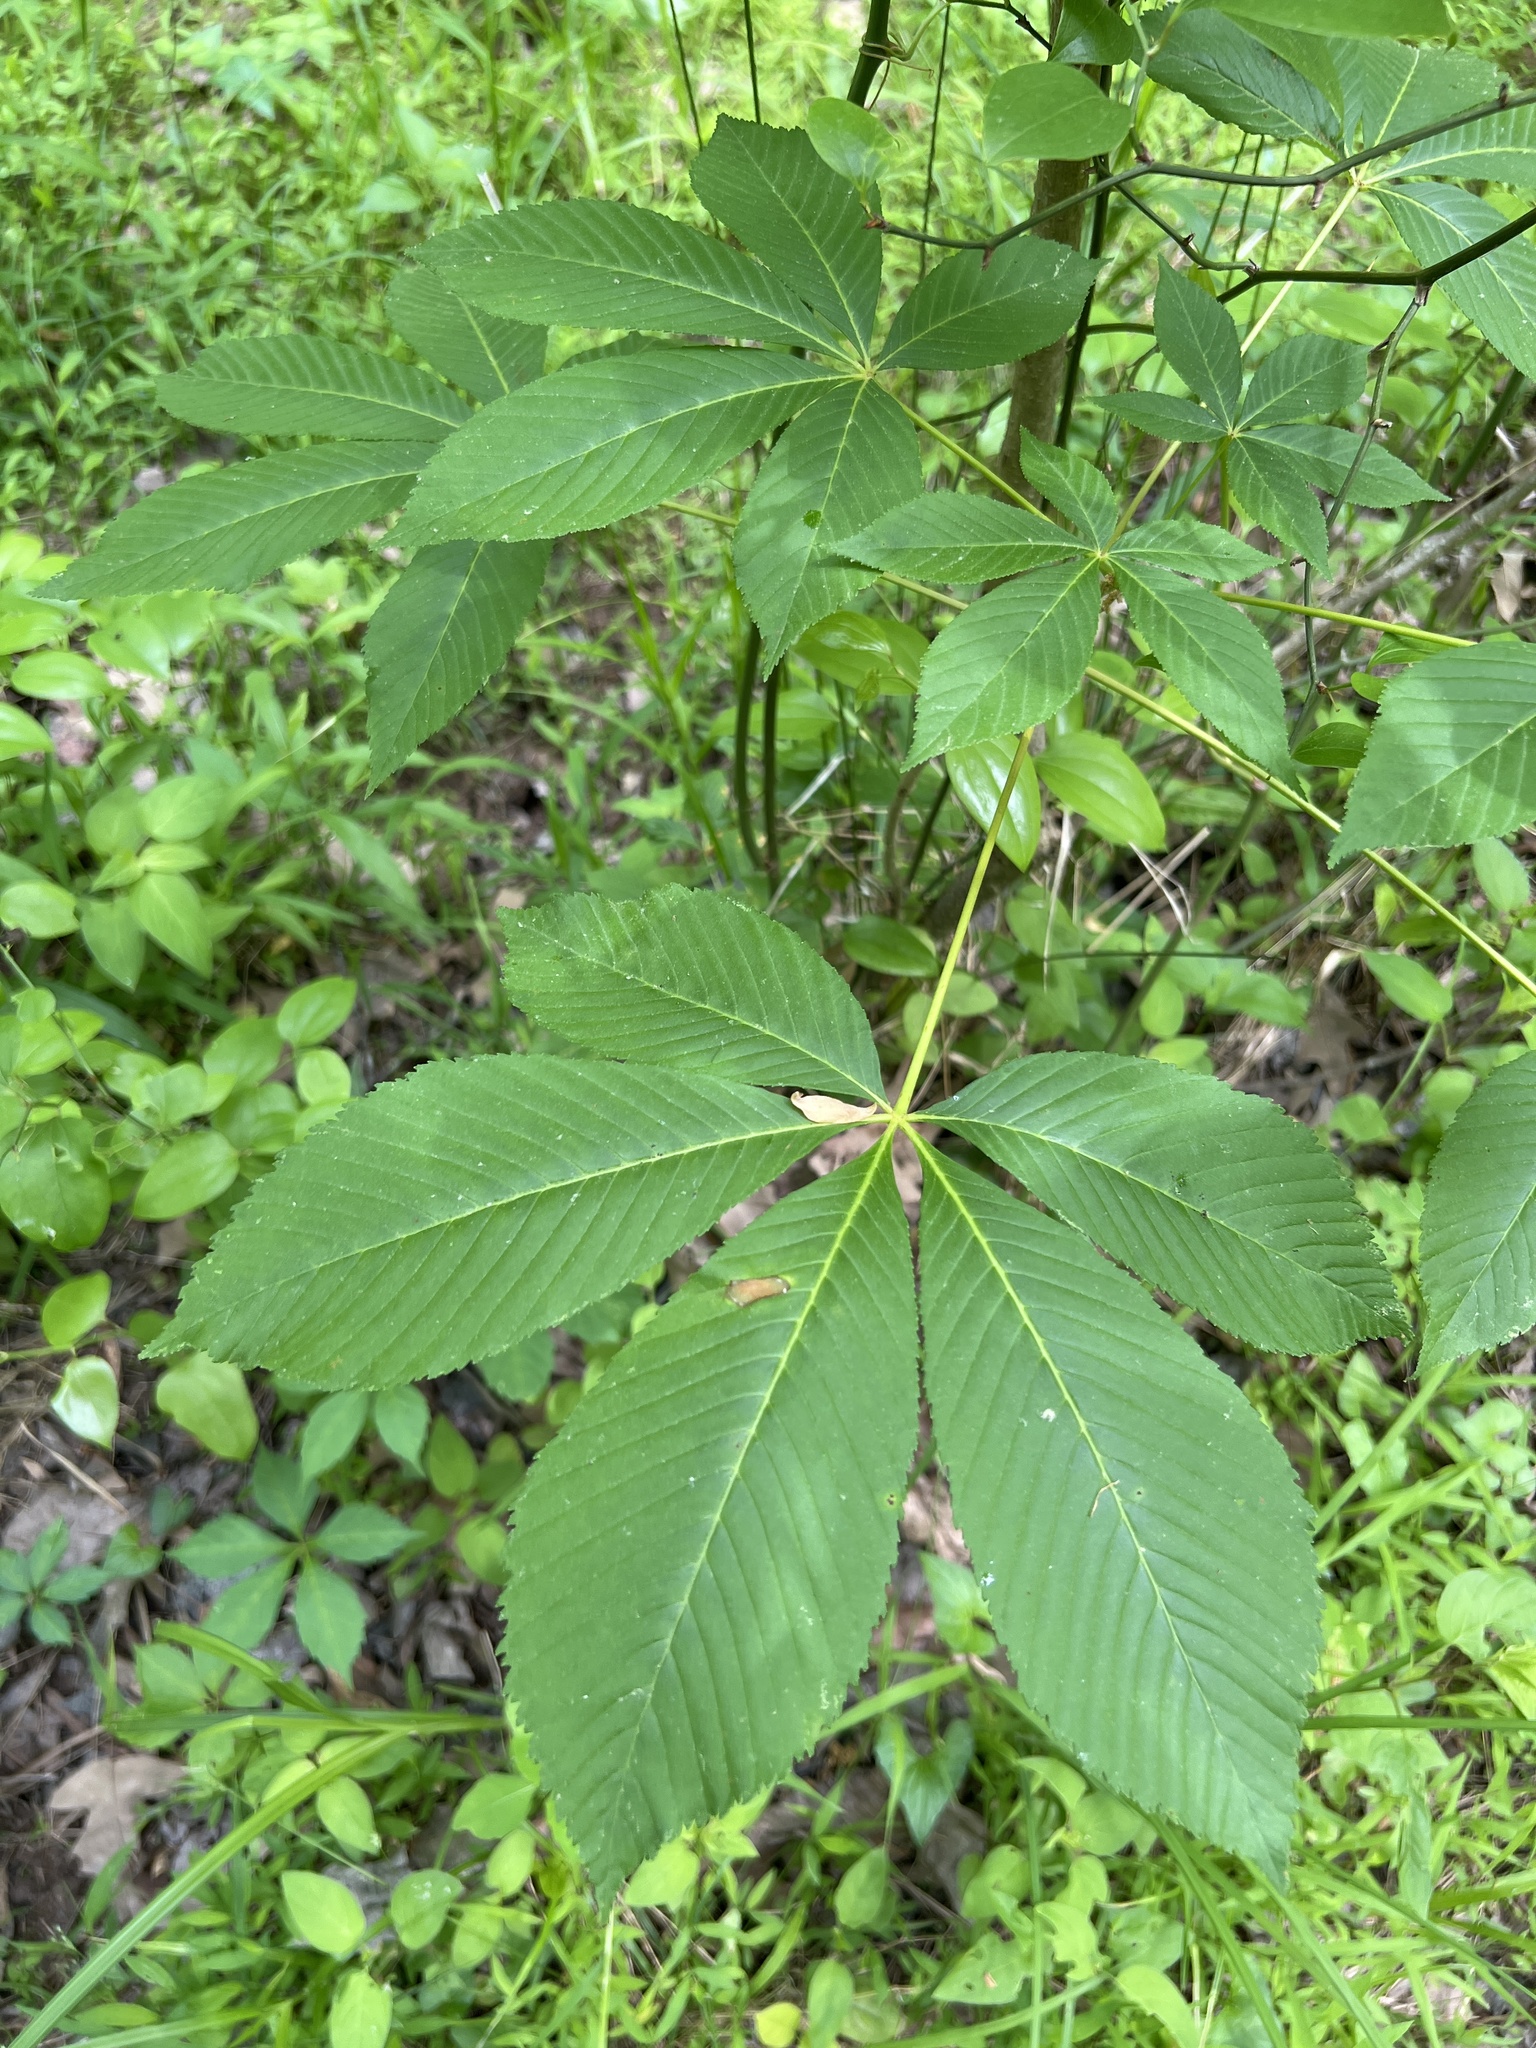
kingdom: Plantae
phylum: Tracheophyta
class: Magnoliopsida
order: Sapindales
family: Sapindaceae
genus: Aesculus
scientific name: Aesculus sylvatica
